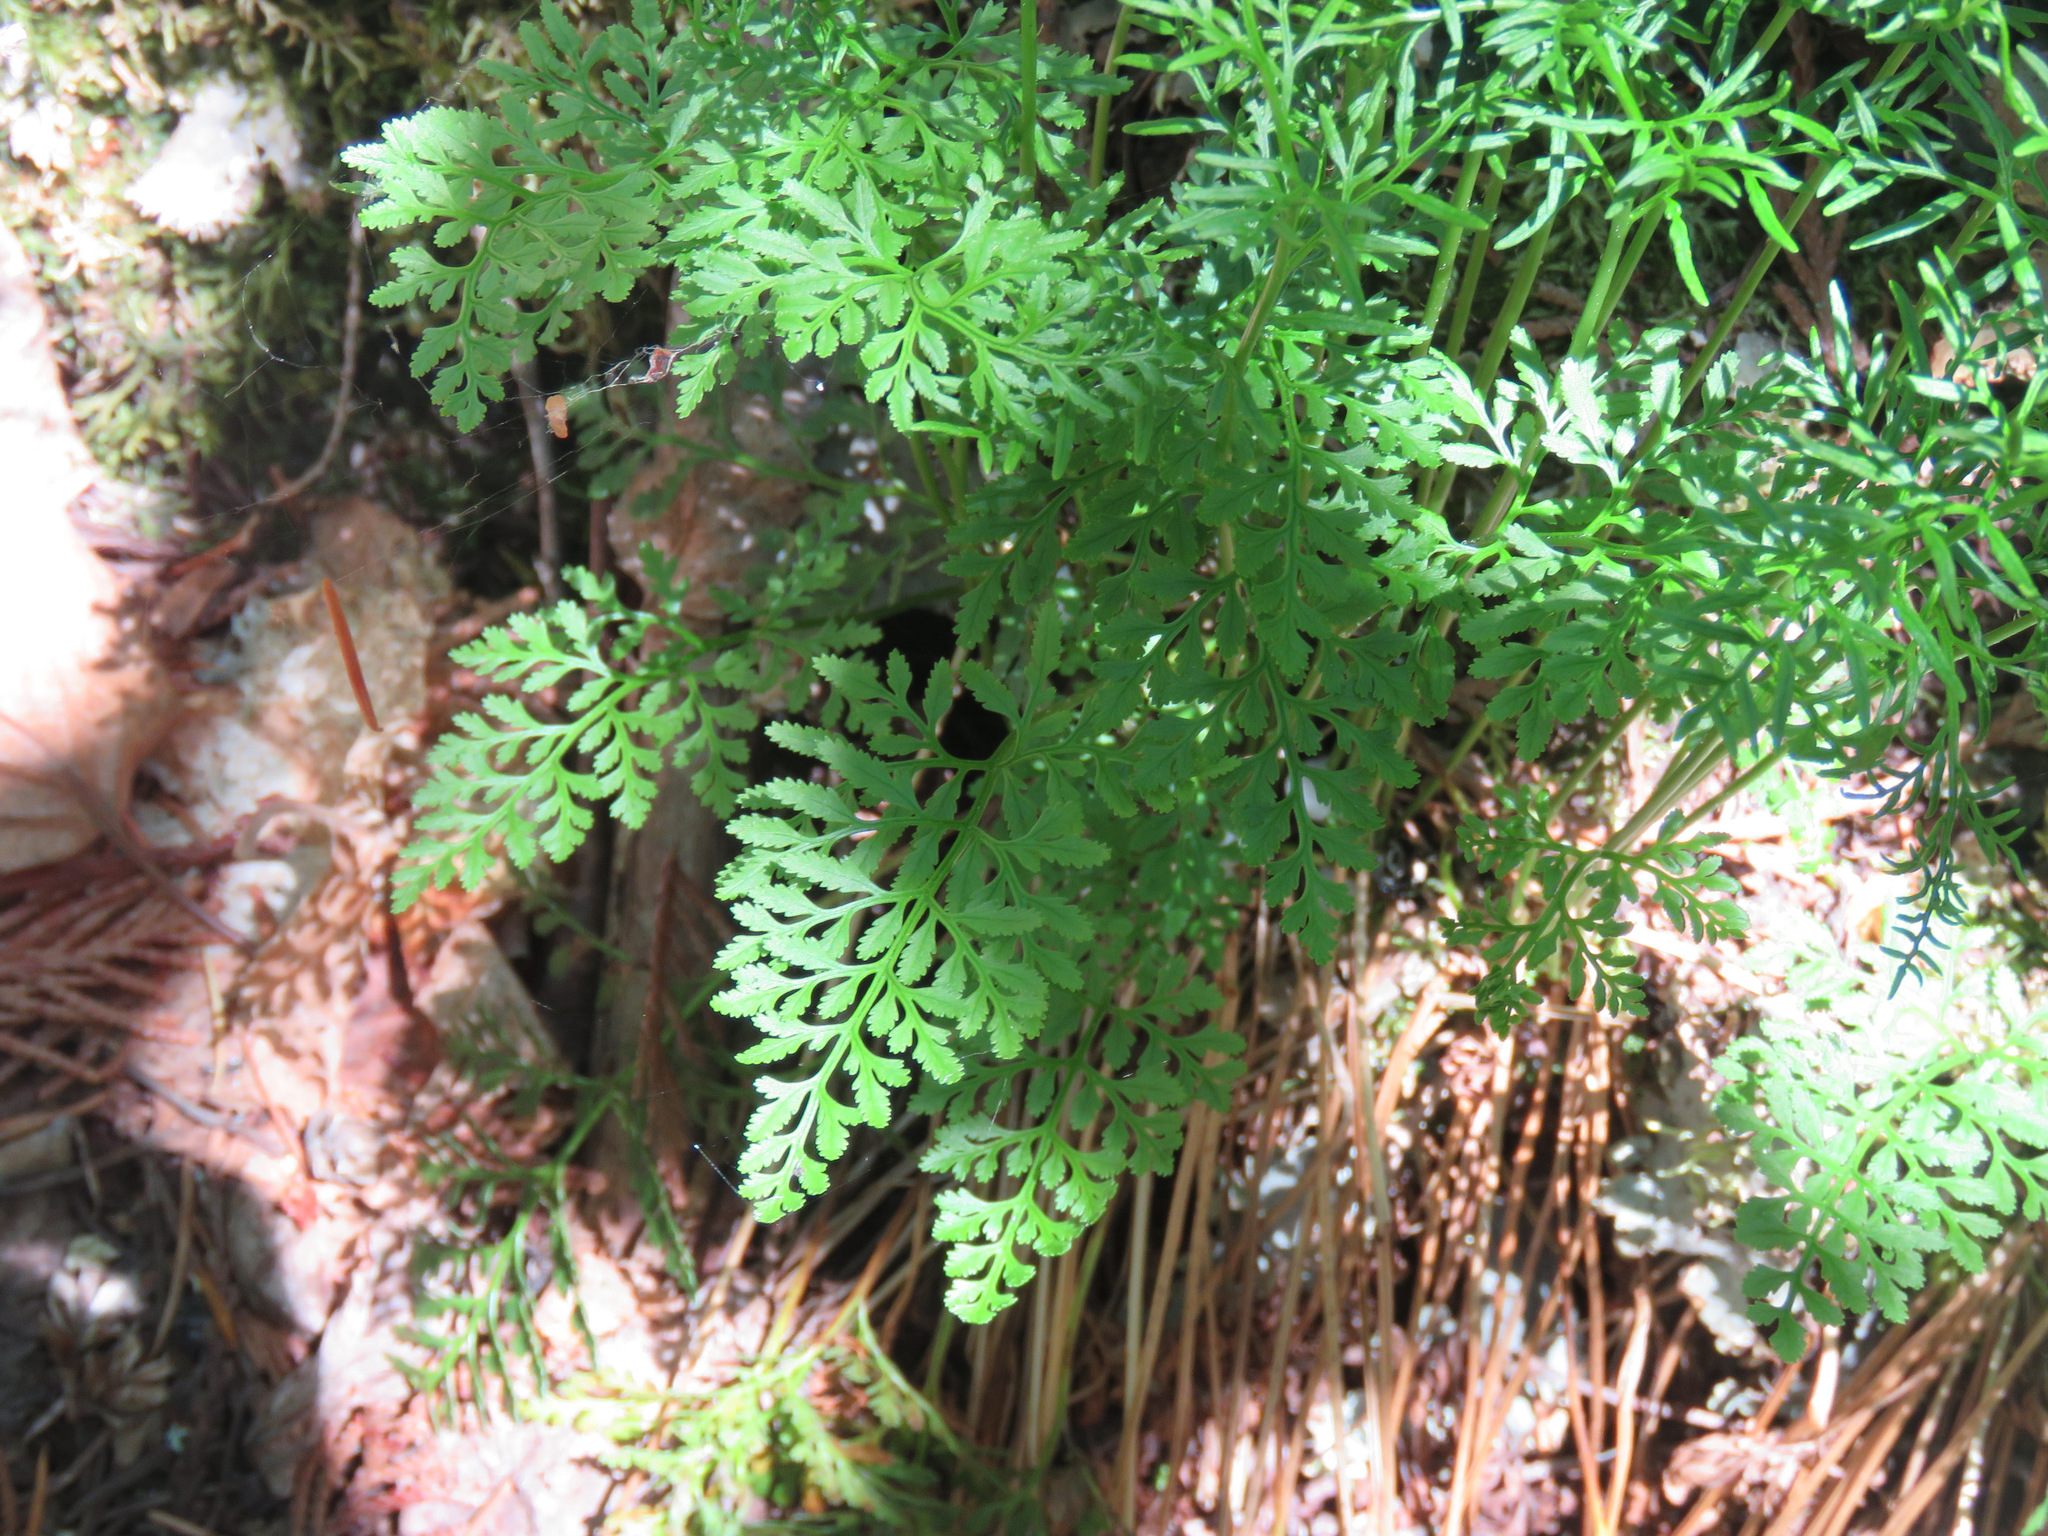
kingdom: Plantae
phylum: Tracheophyta
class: Polypodiopsida
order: Polypodiales
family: Pteridaceae
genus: Cryptogramma
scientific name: Cryptogramma acrostichoides
